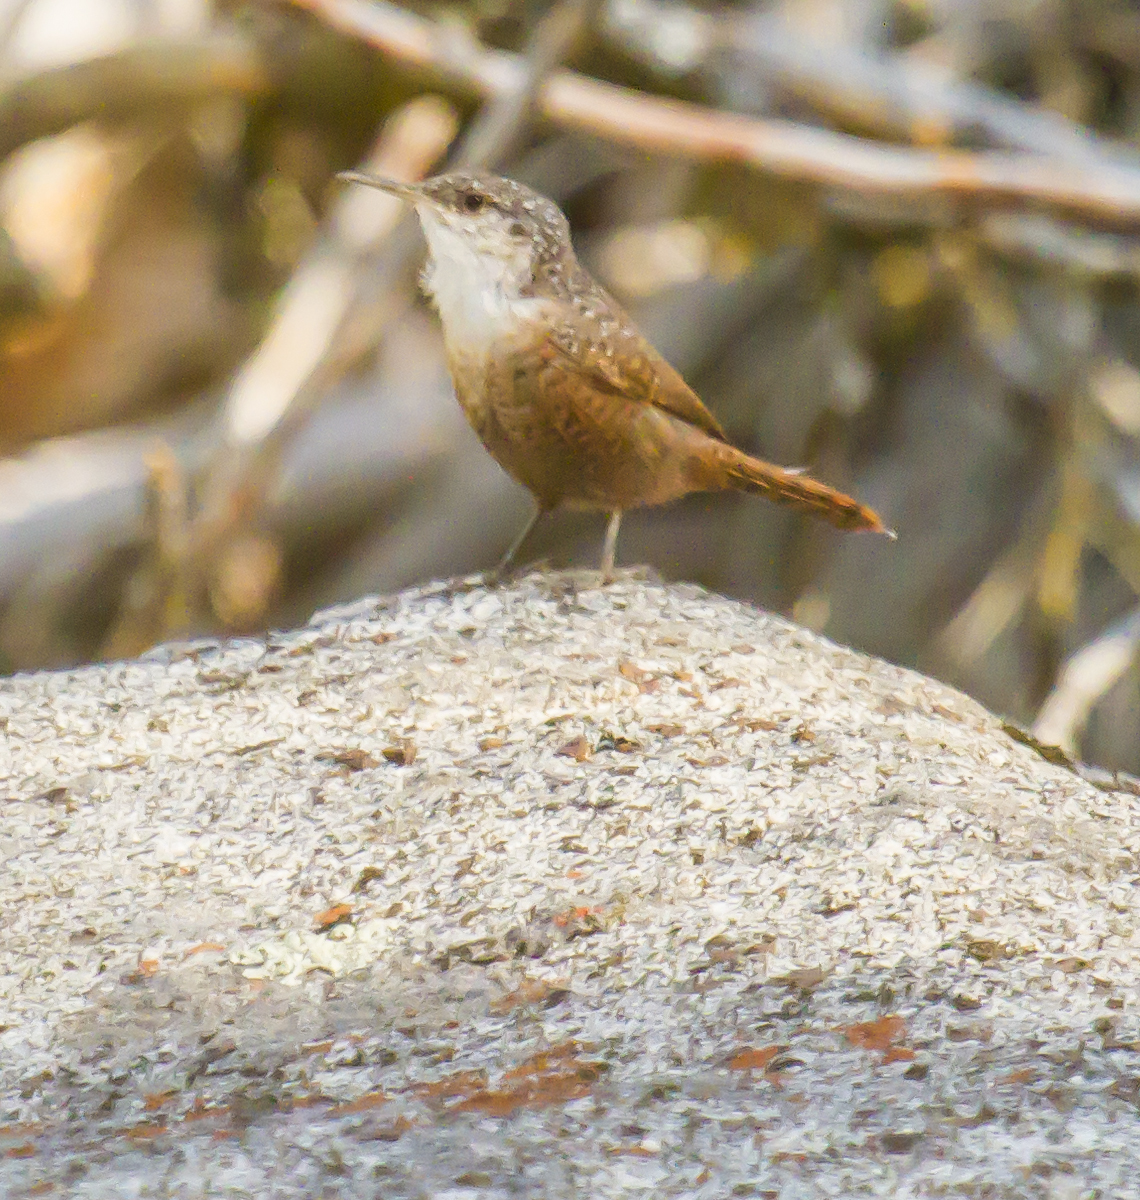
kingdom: Animalia
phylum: Chordata
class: Aves
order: Passeriformes
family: Troglodytidae
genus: Catherpes
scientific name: Catherpes mexicanus
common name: Canyon wren
